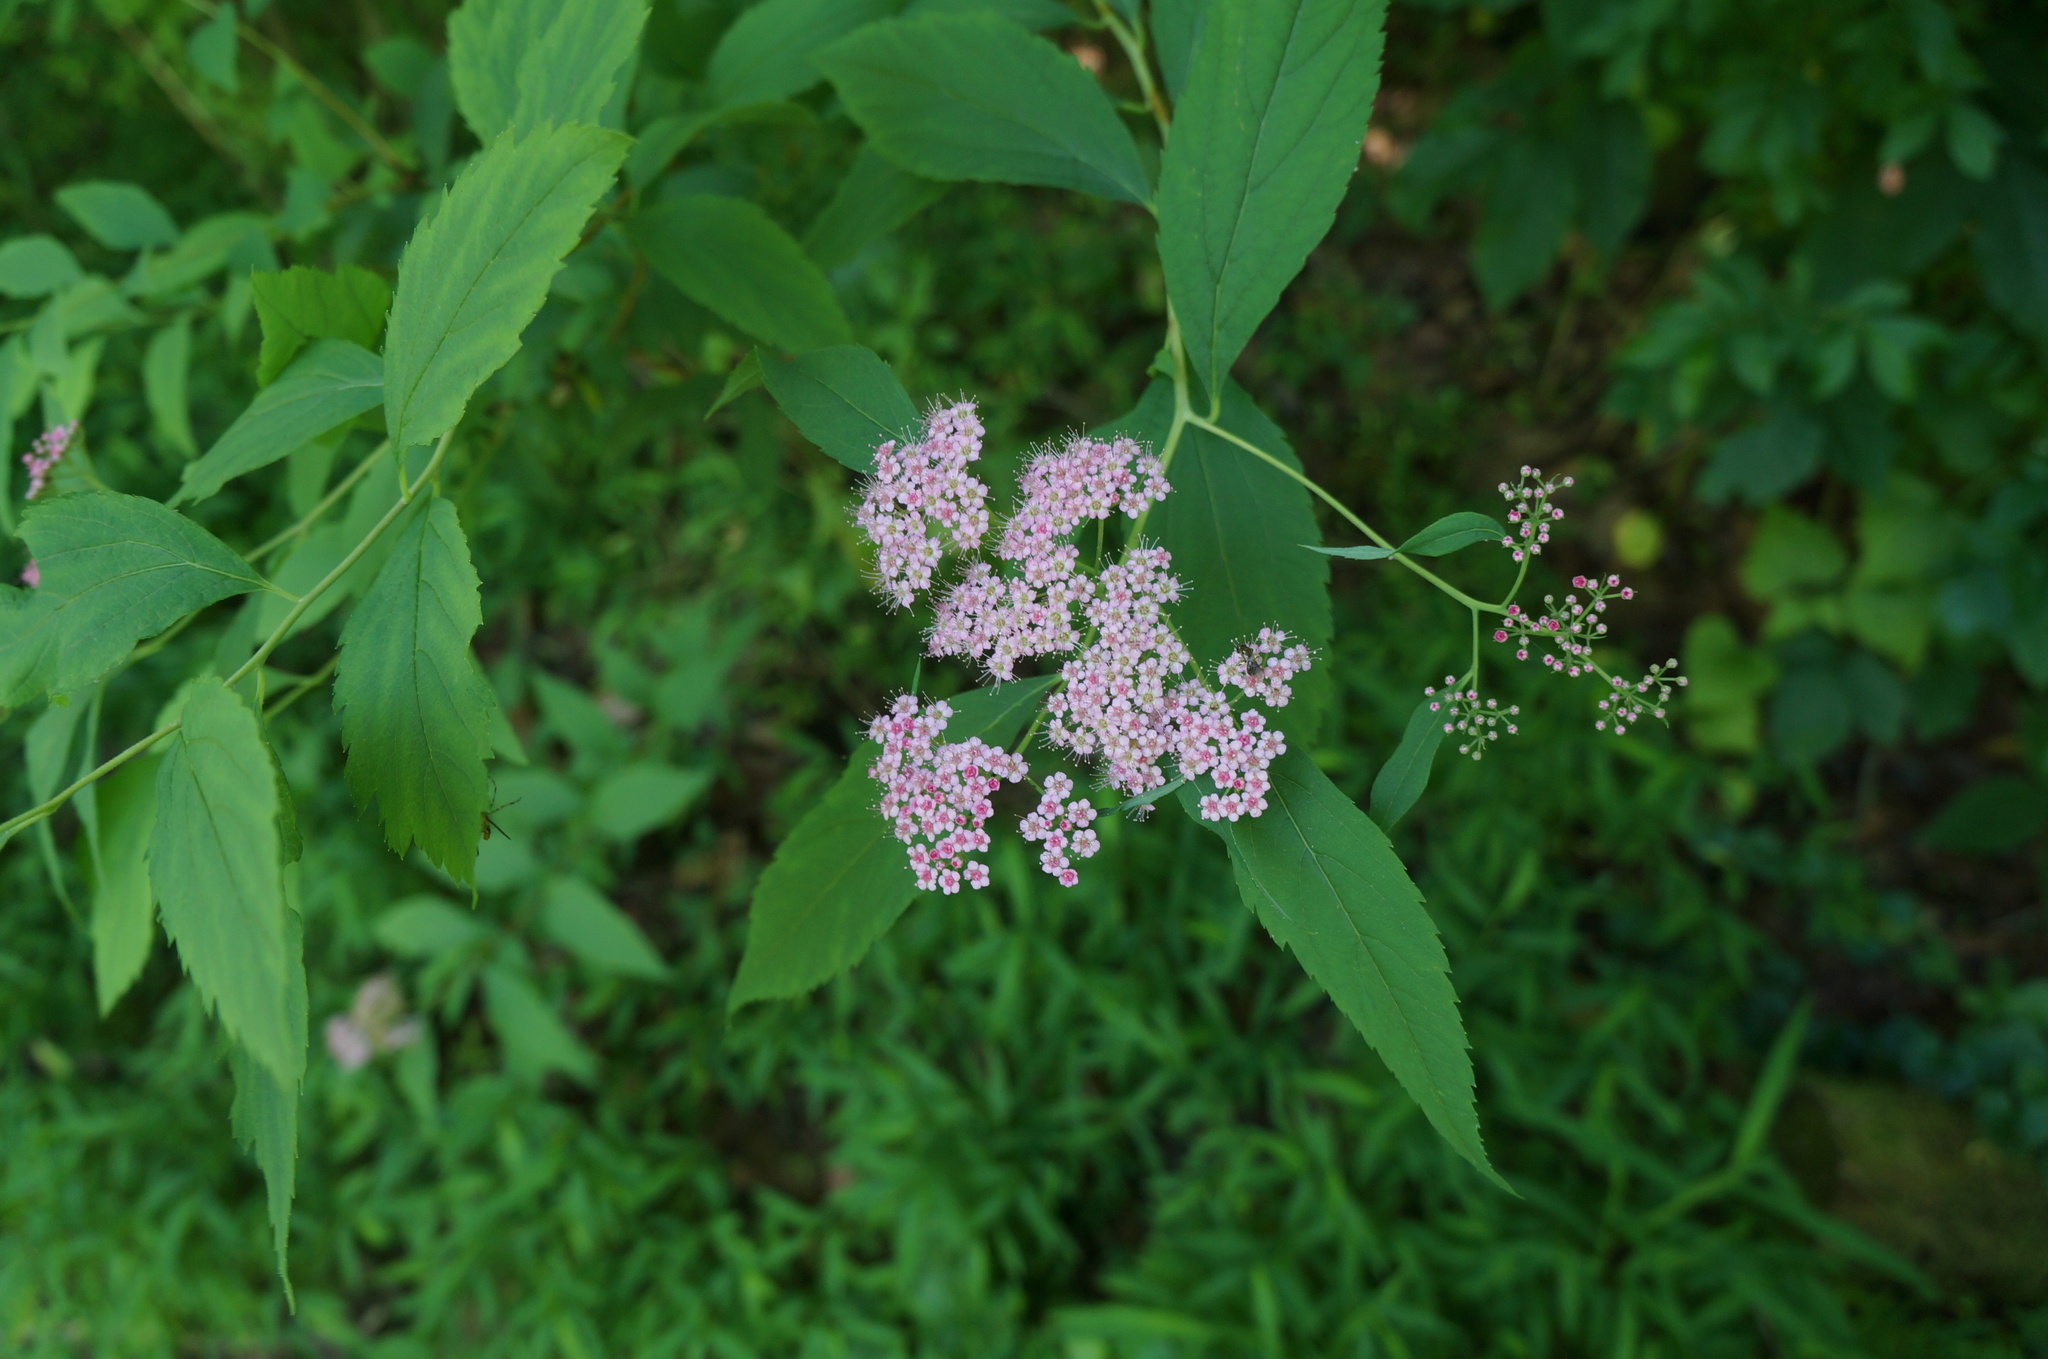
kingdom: Plantae
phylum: Tracheophyta
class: Magnoliopsida
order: Rosales
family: Rosaceae
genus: Spiraea
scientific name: Spiraea japonica
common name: Japanese spiraea
